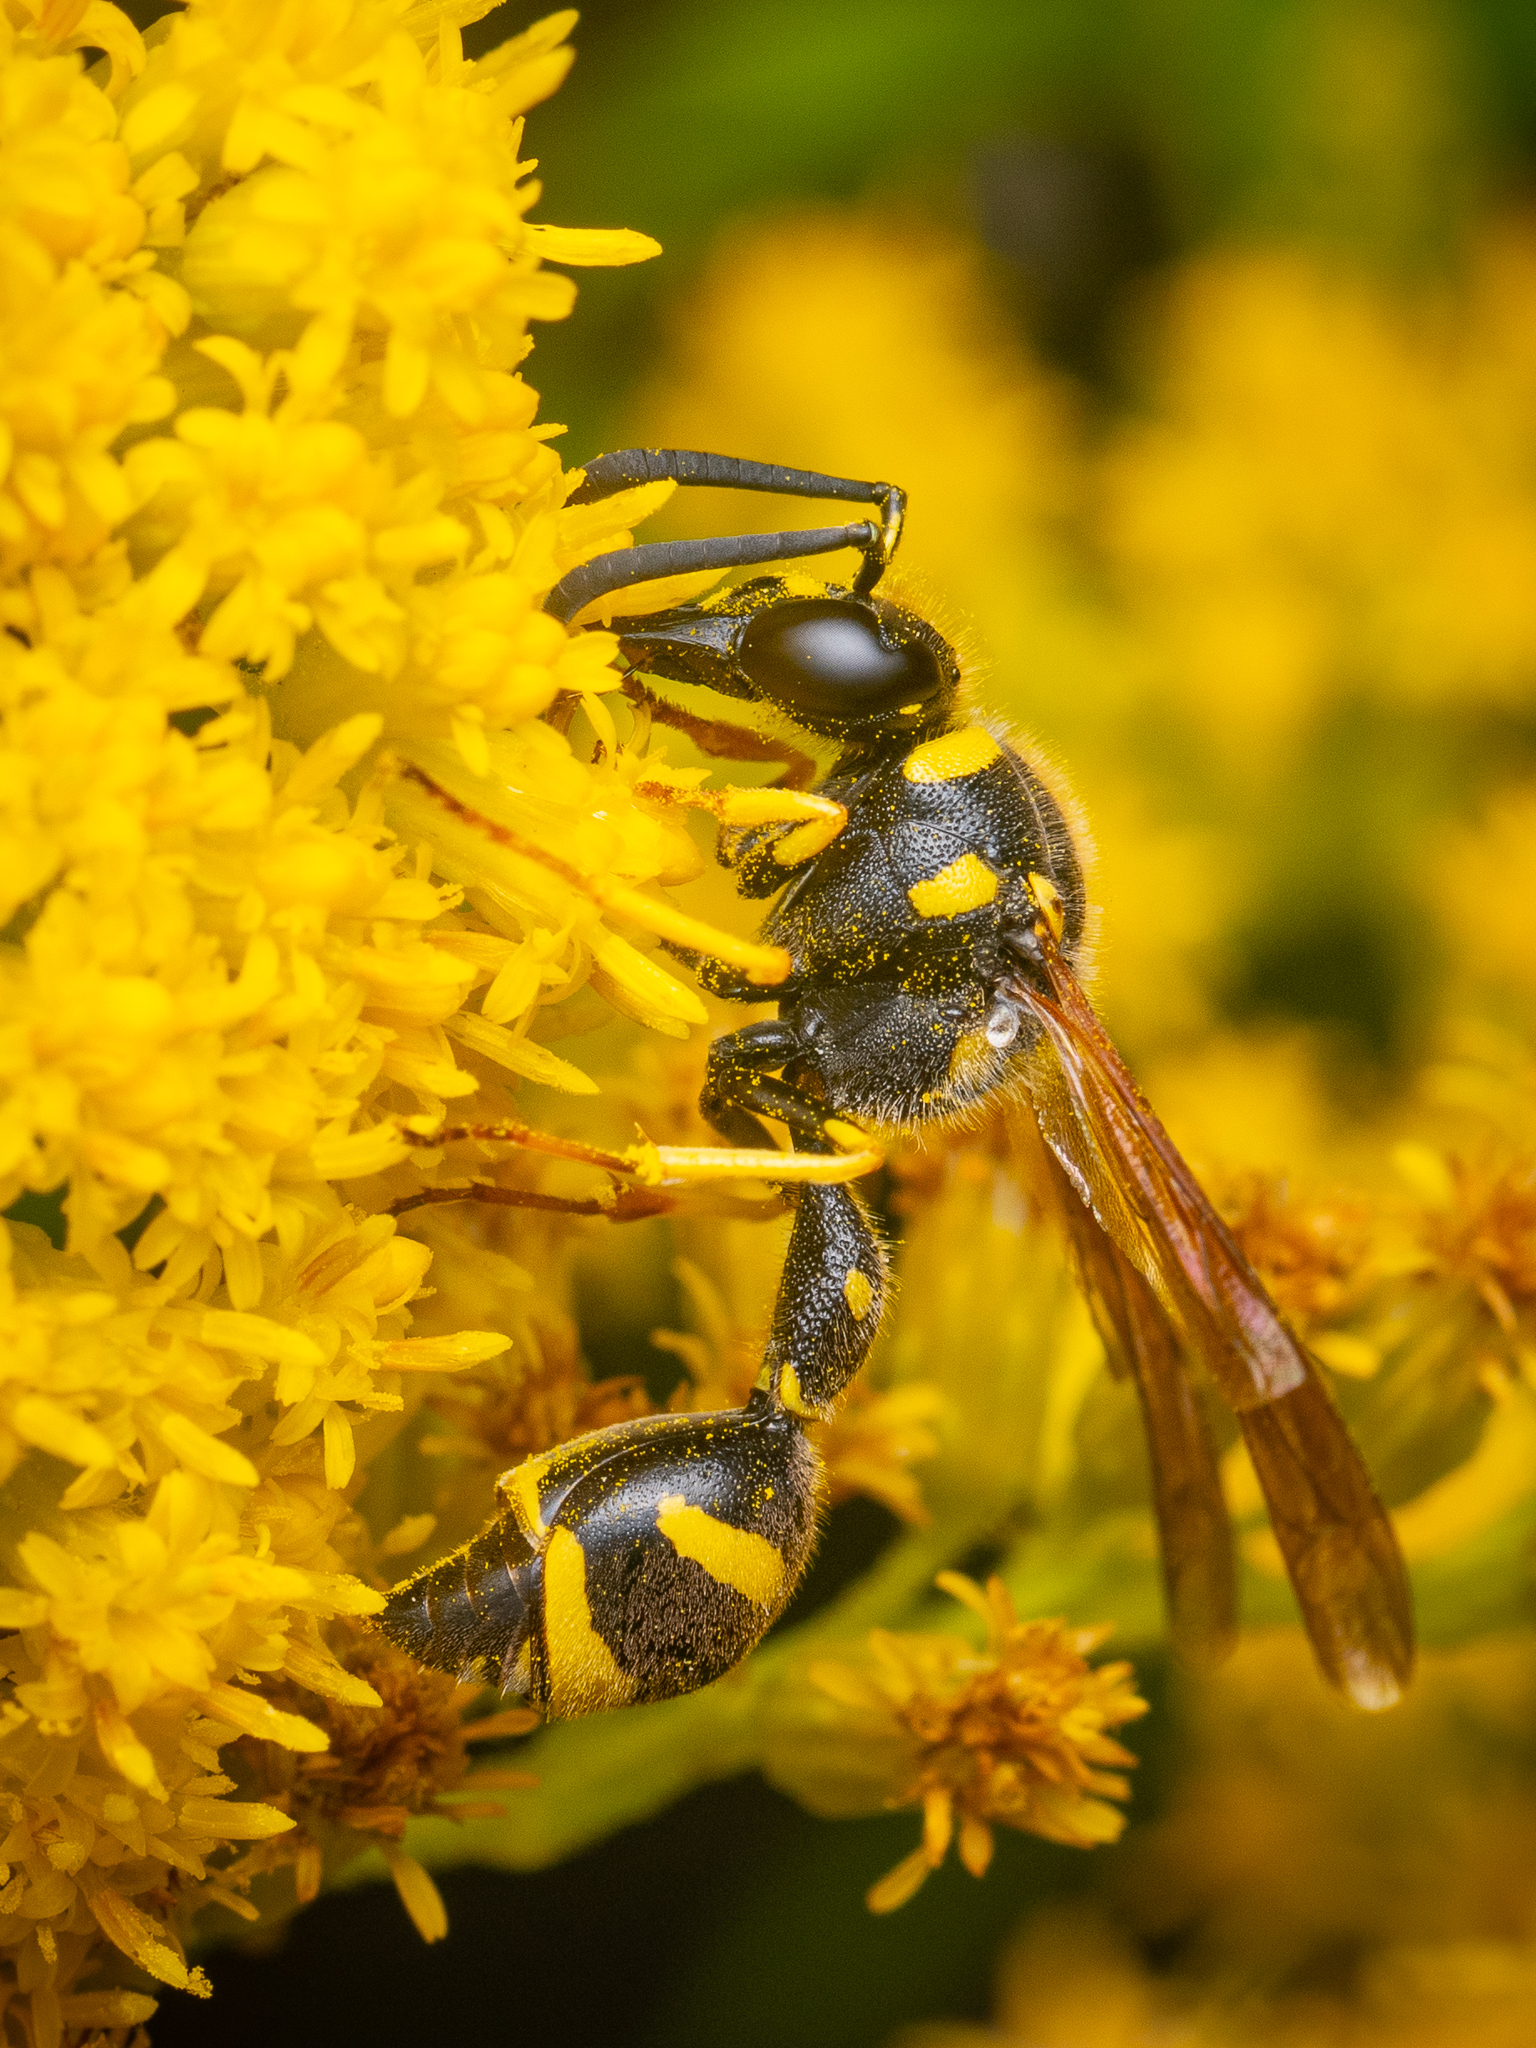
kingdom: Animalia
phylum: Arthropoda
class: Insecta
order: Hymenoptera
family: Vespidae
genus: Eumenes
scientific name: Eumenes coronatus
